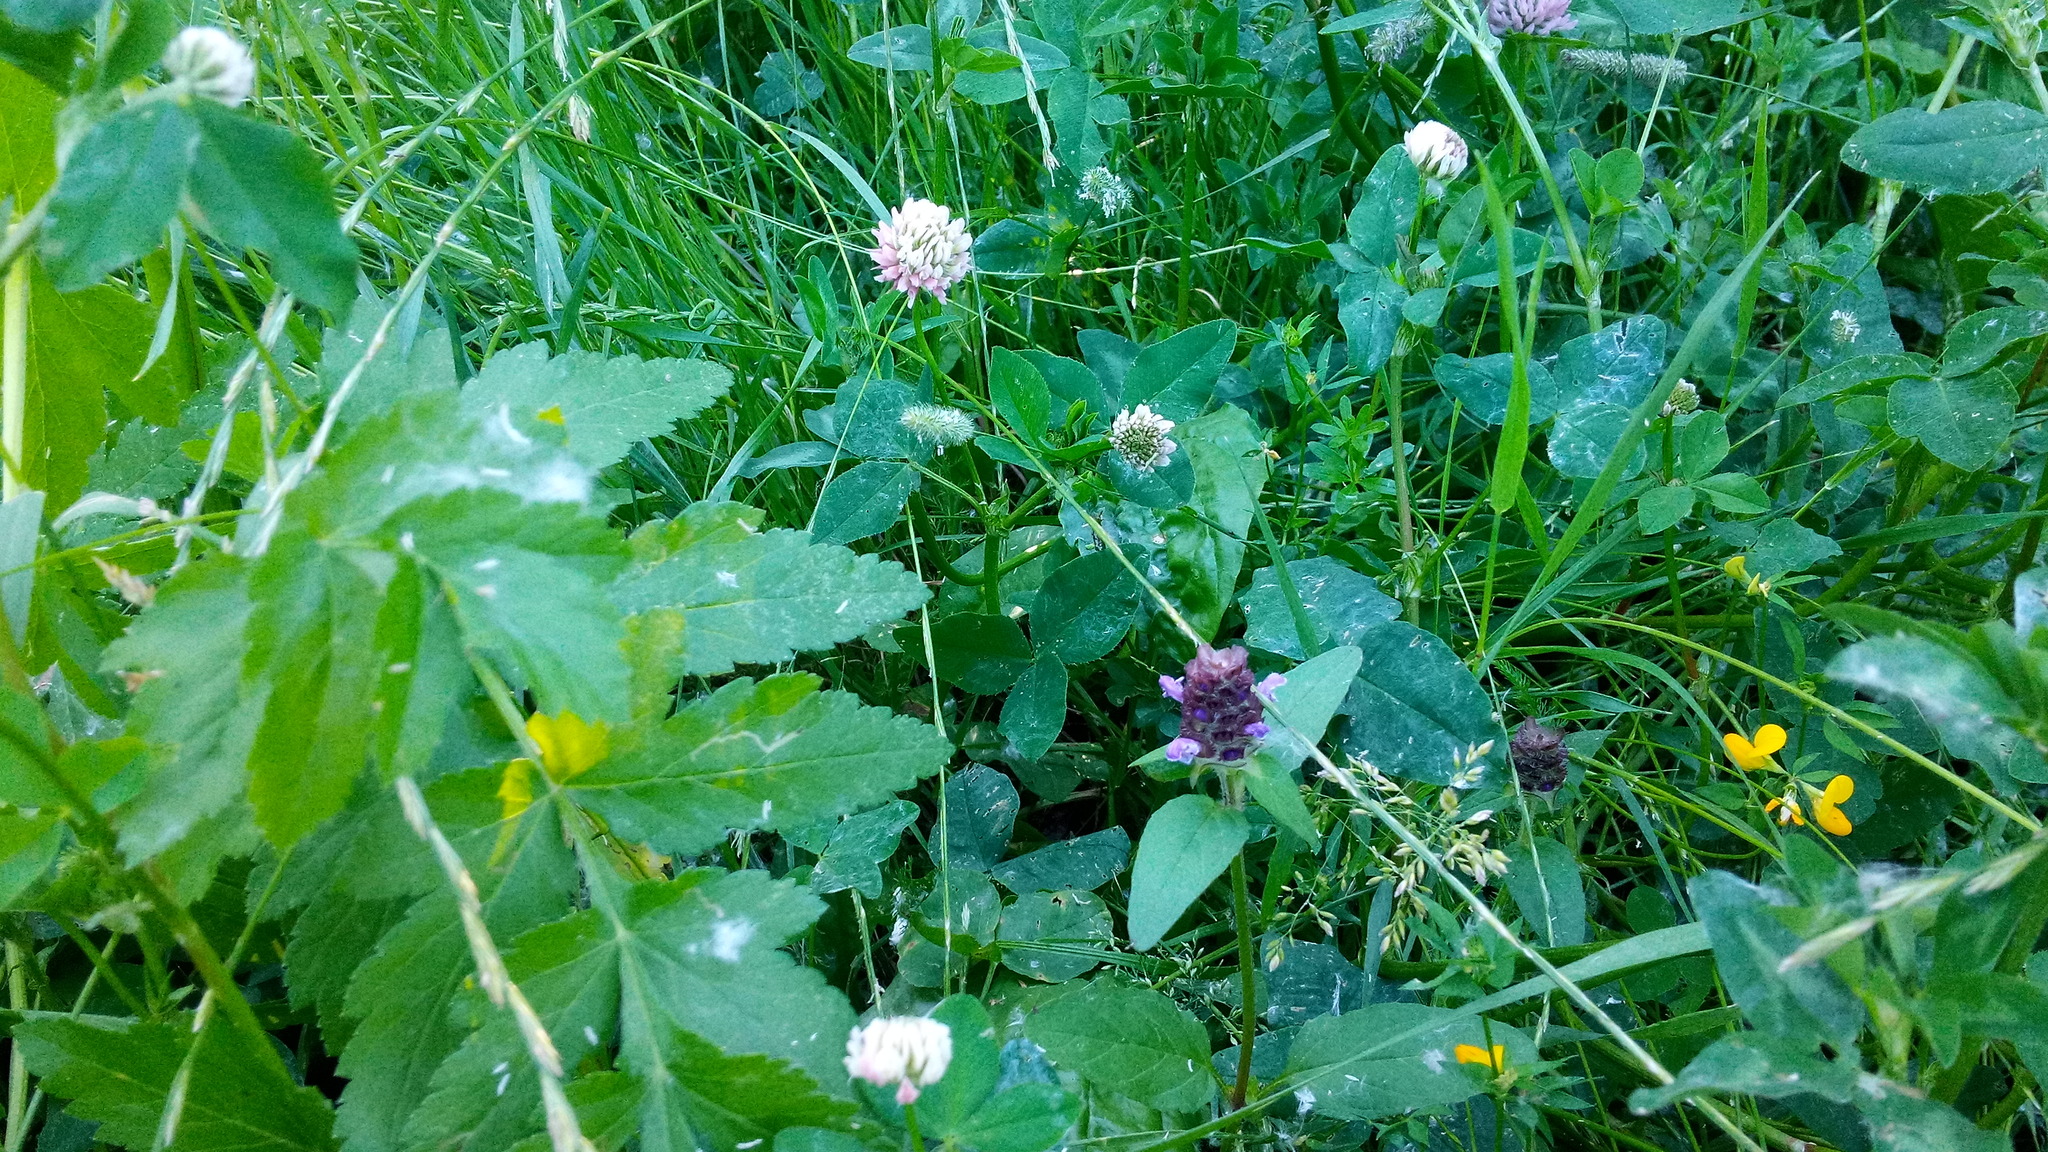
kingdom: Plantae
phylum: Tracheophyta
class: Magnoliopsida
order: Lamiales
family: Lamiaceae
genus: Prunella
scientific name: Prunella vulgaris
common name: Heal-all
